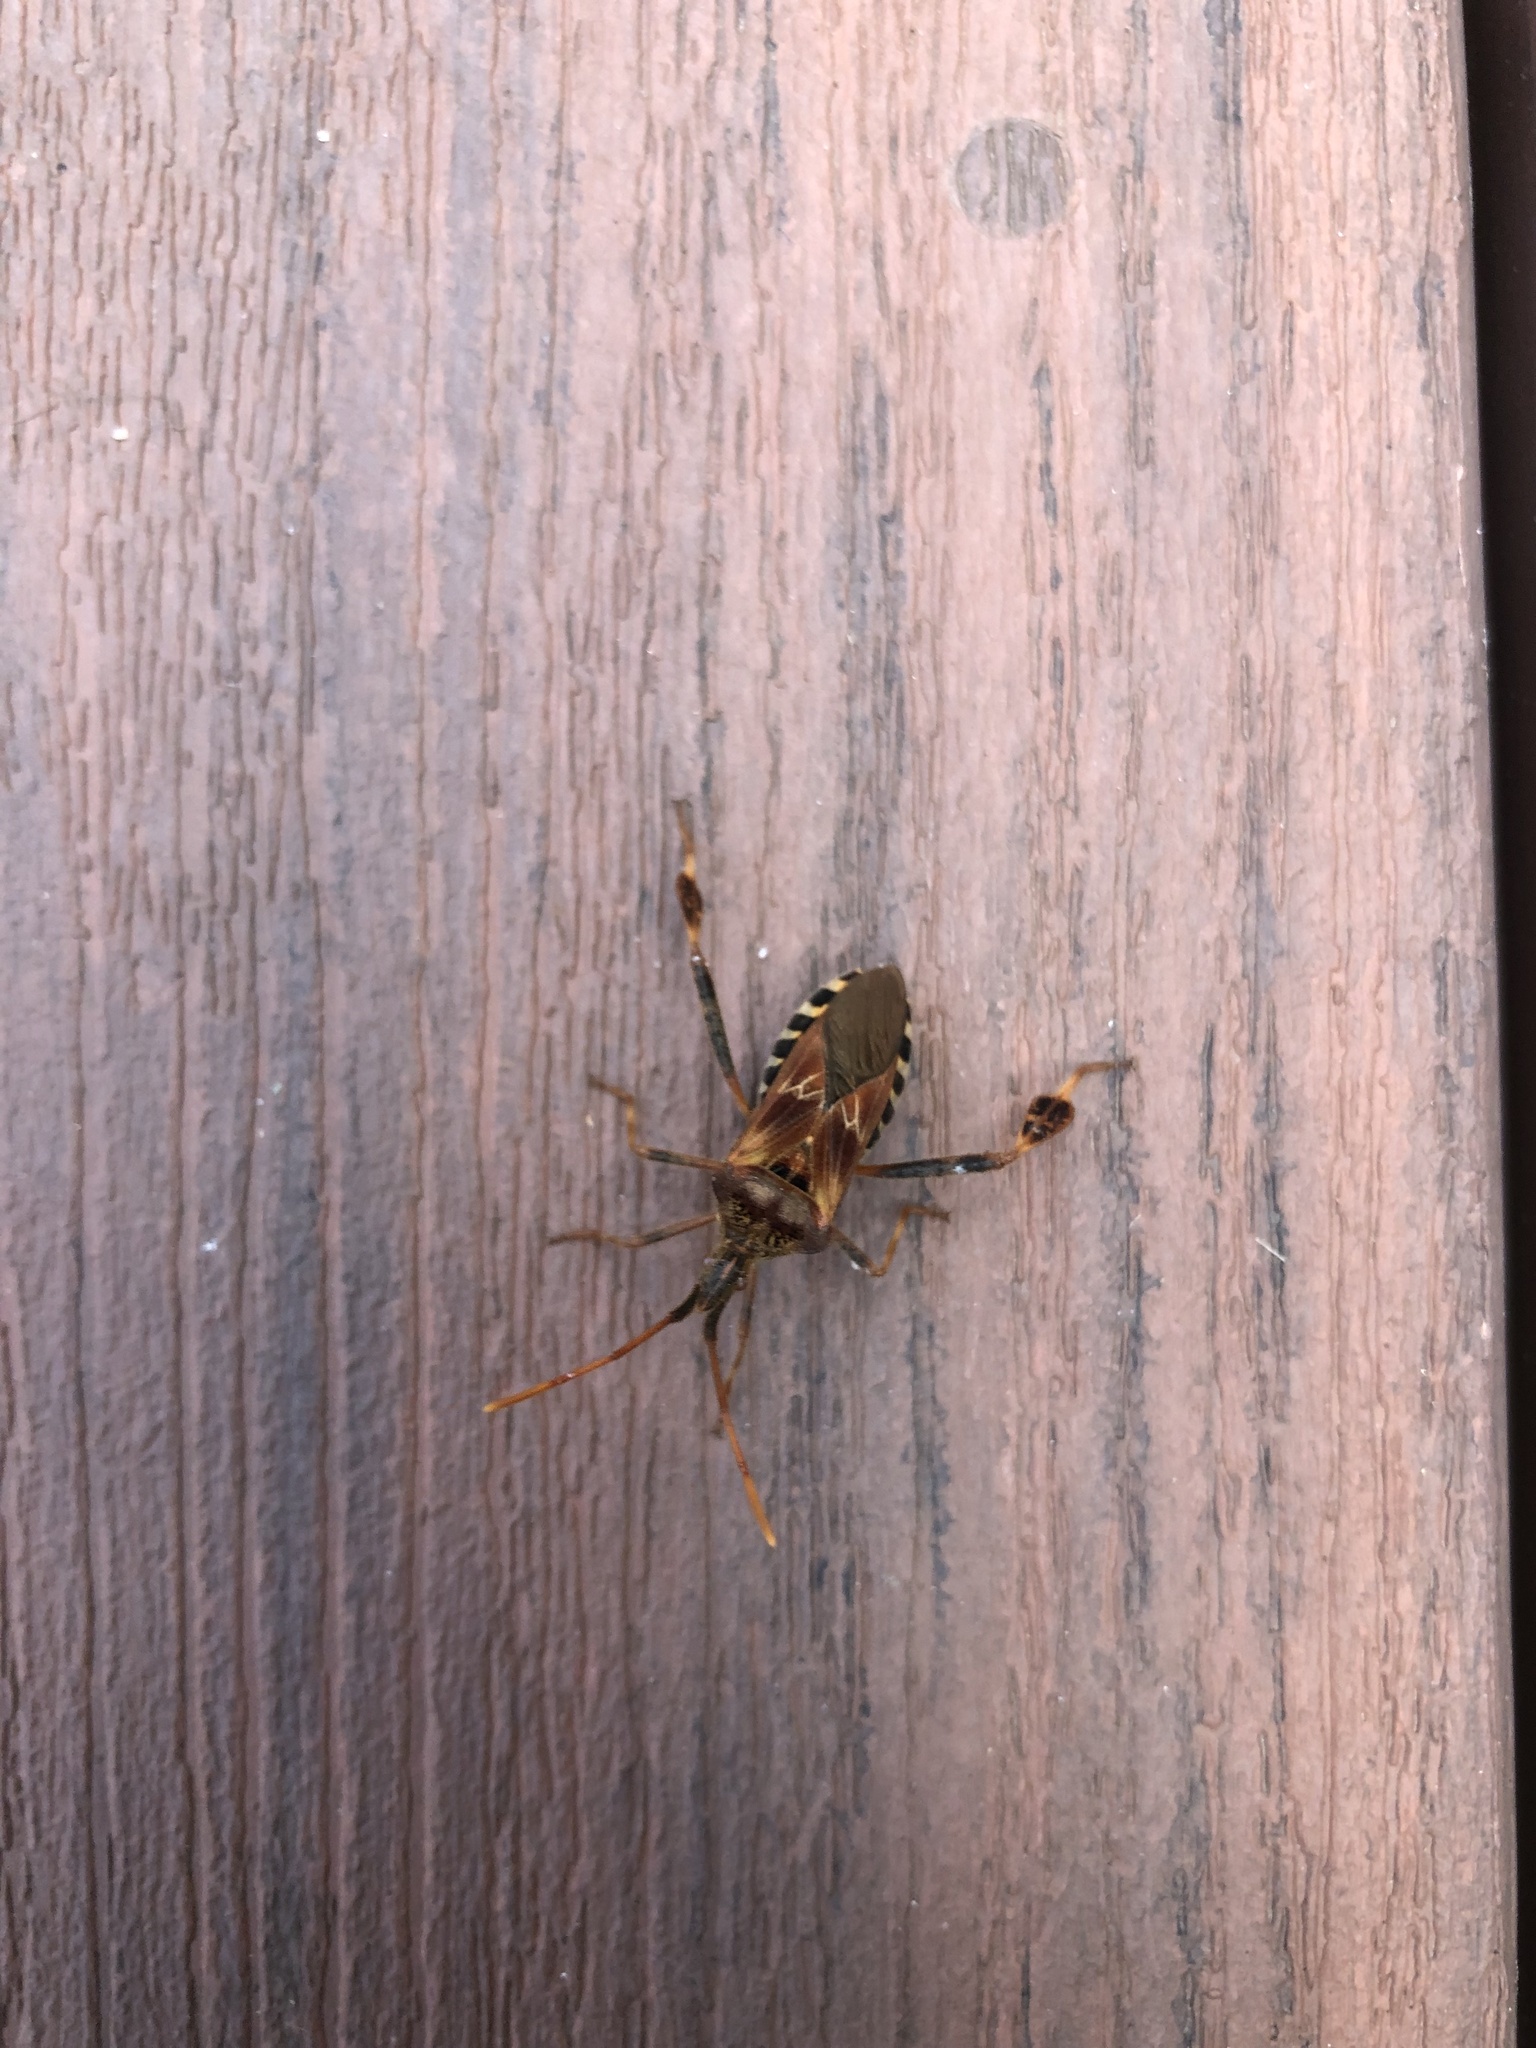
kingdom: Animalia
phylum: Arthropoda
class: Insecta
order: Hemiptera
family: Coreidae
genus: Leptoglossus
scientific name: Leptoglossus occidentalis
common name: Western conifer-seed bug
